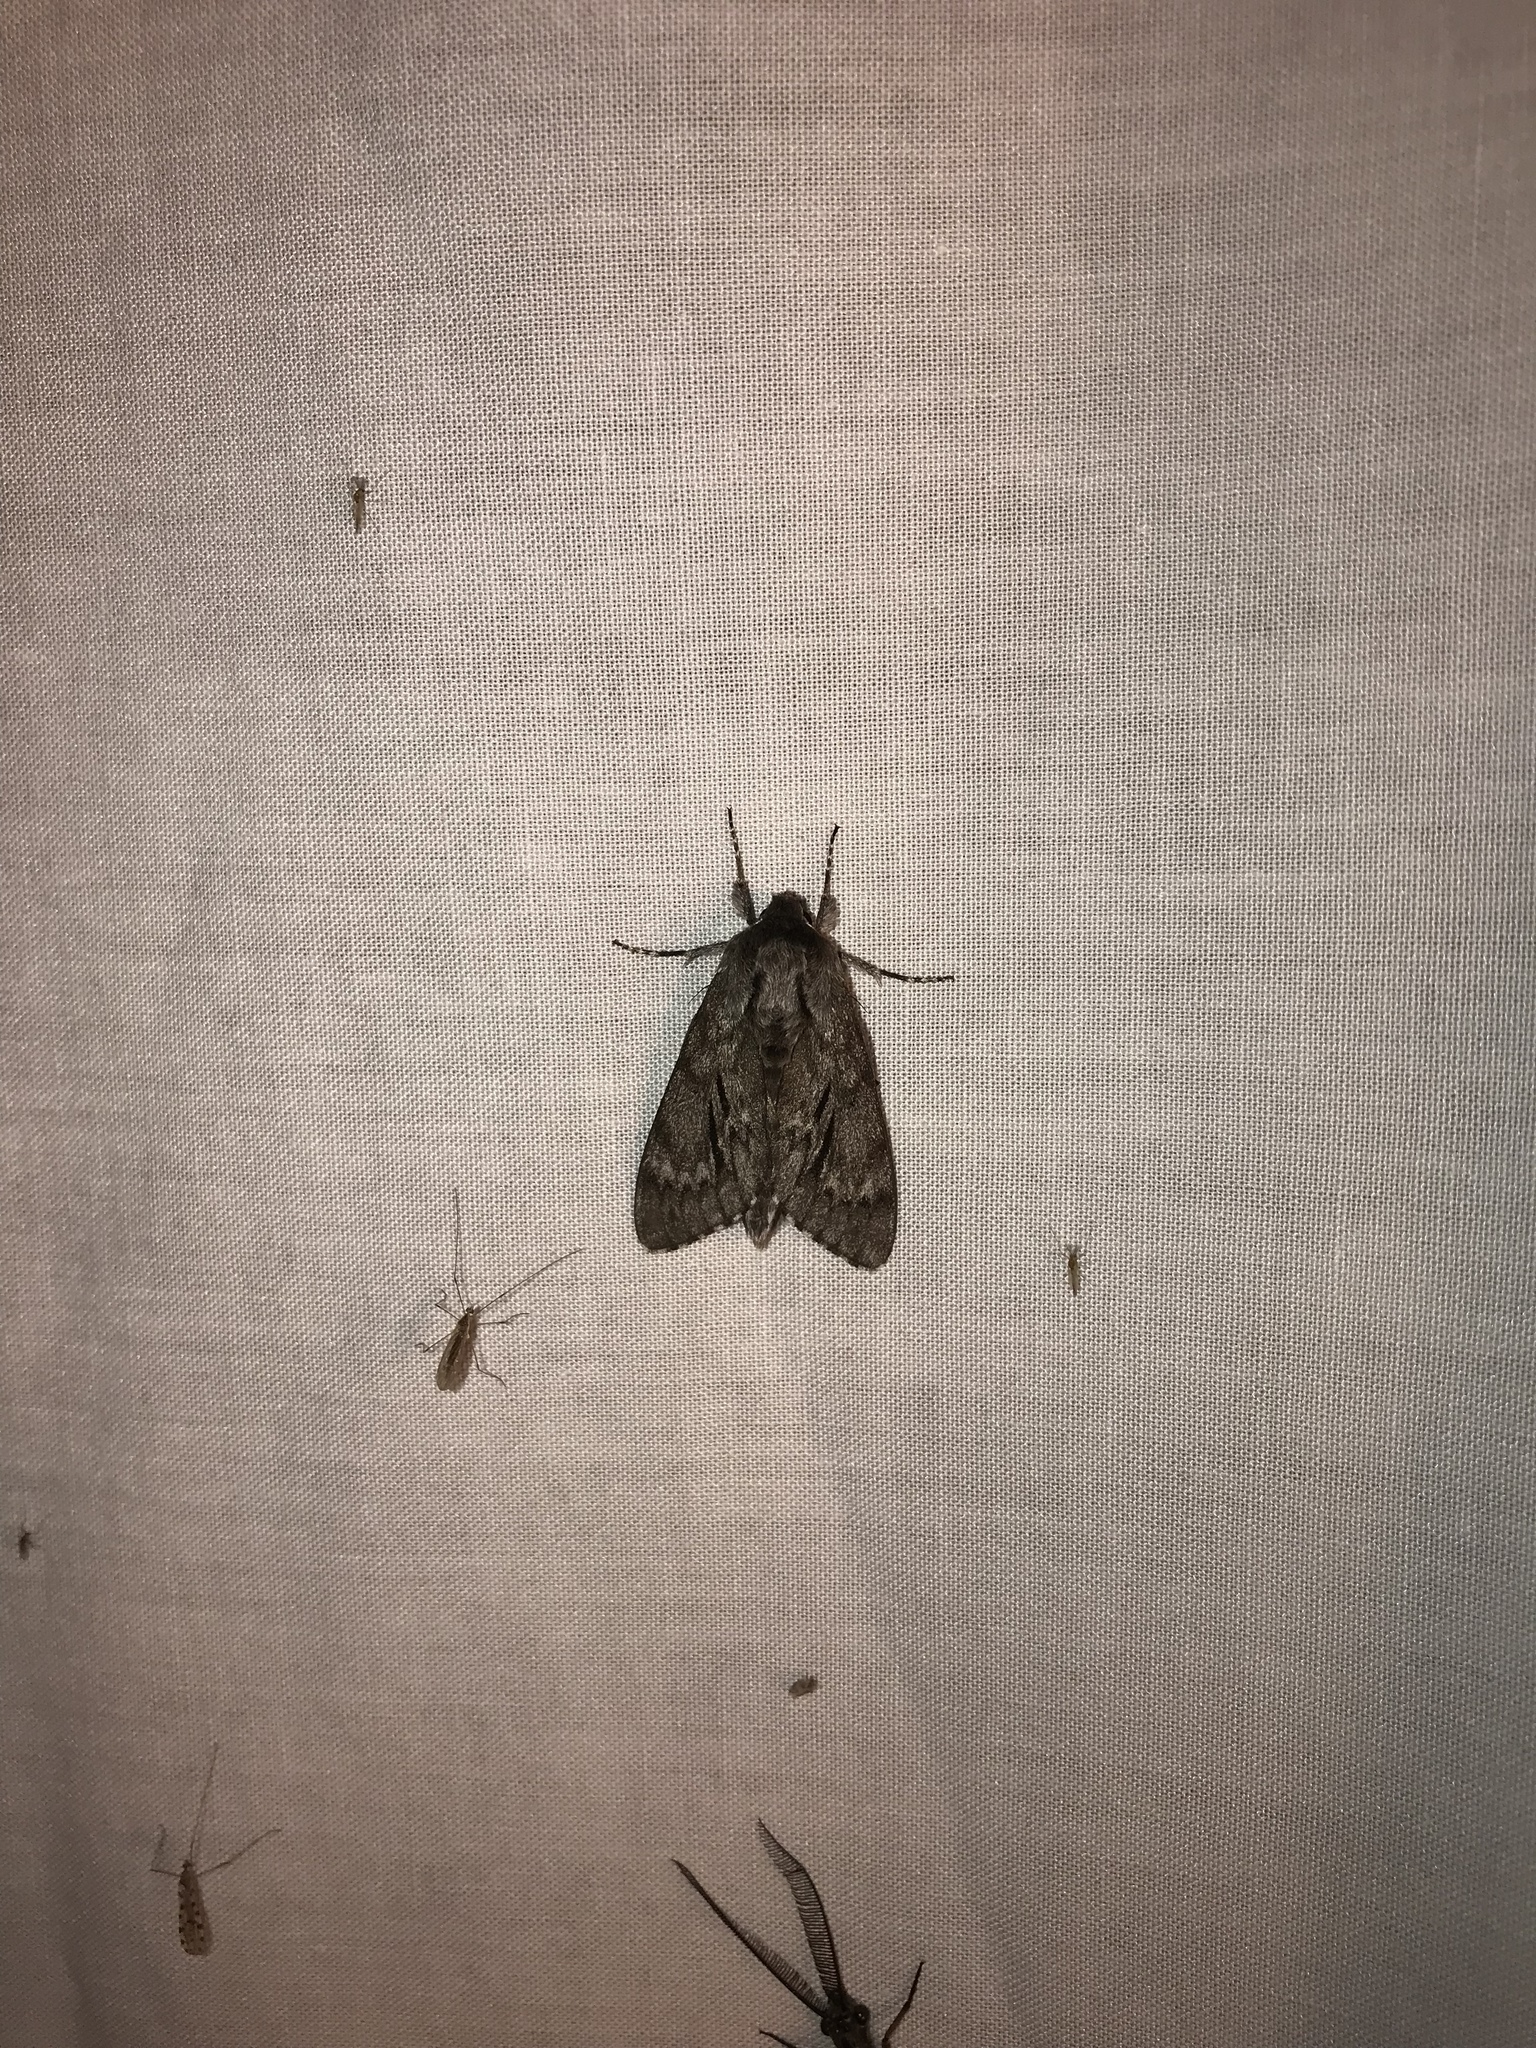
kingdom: Animalia
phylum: Arthropoda
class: Insecta
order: Lepidoptera
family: Sphingidae
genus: Lapara
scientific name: Lapara bombycoides
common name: Northern pine sphinx
